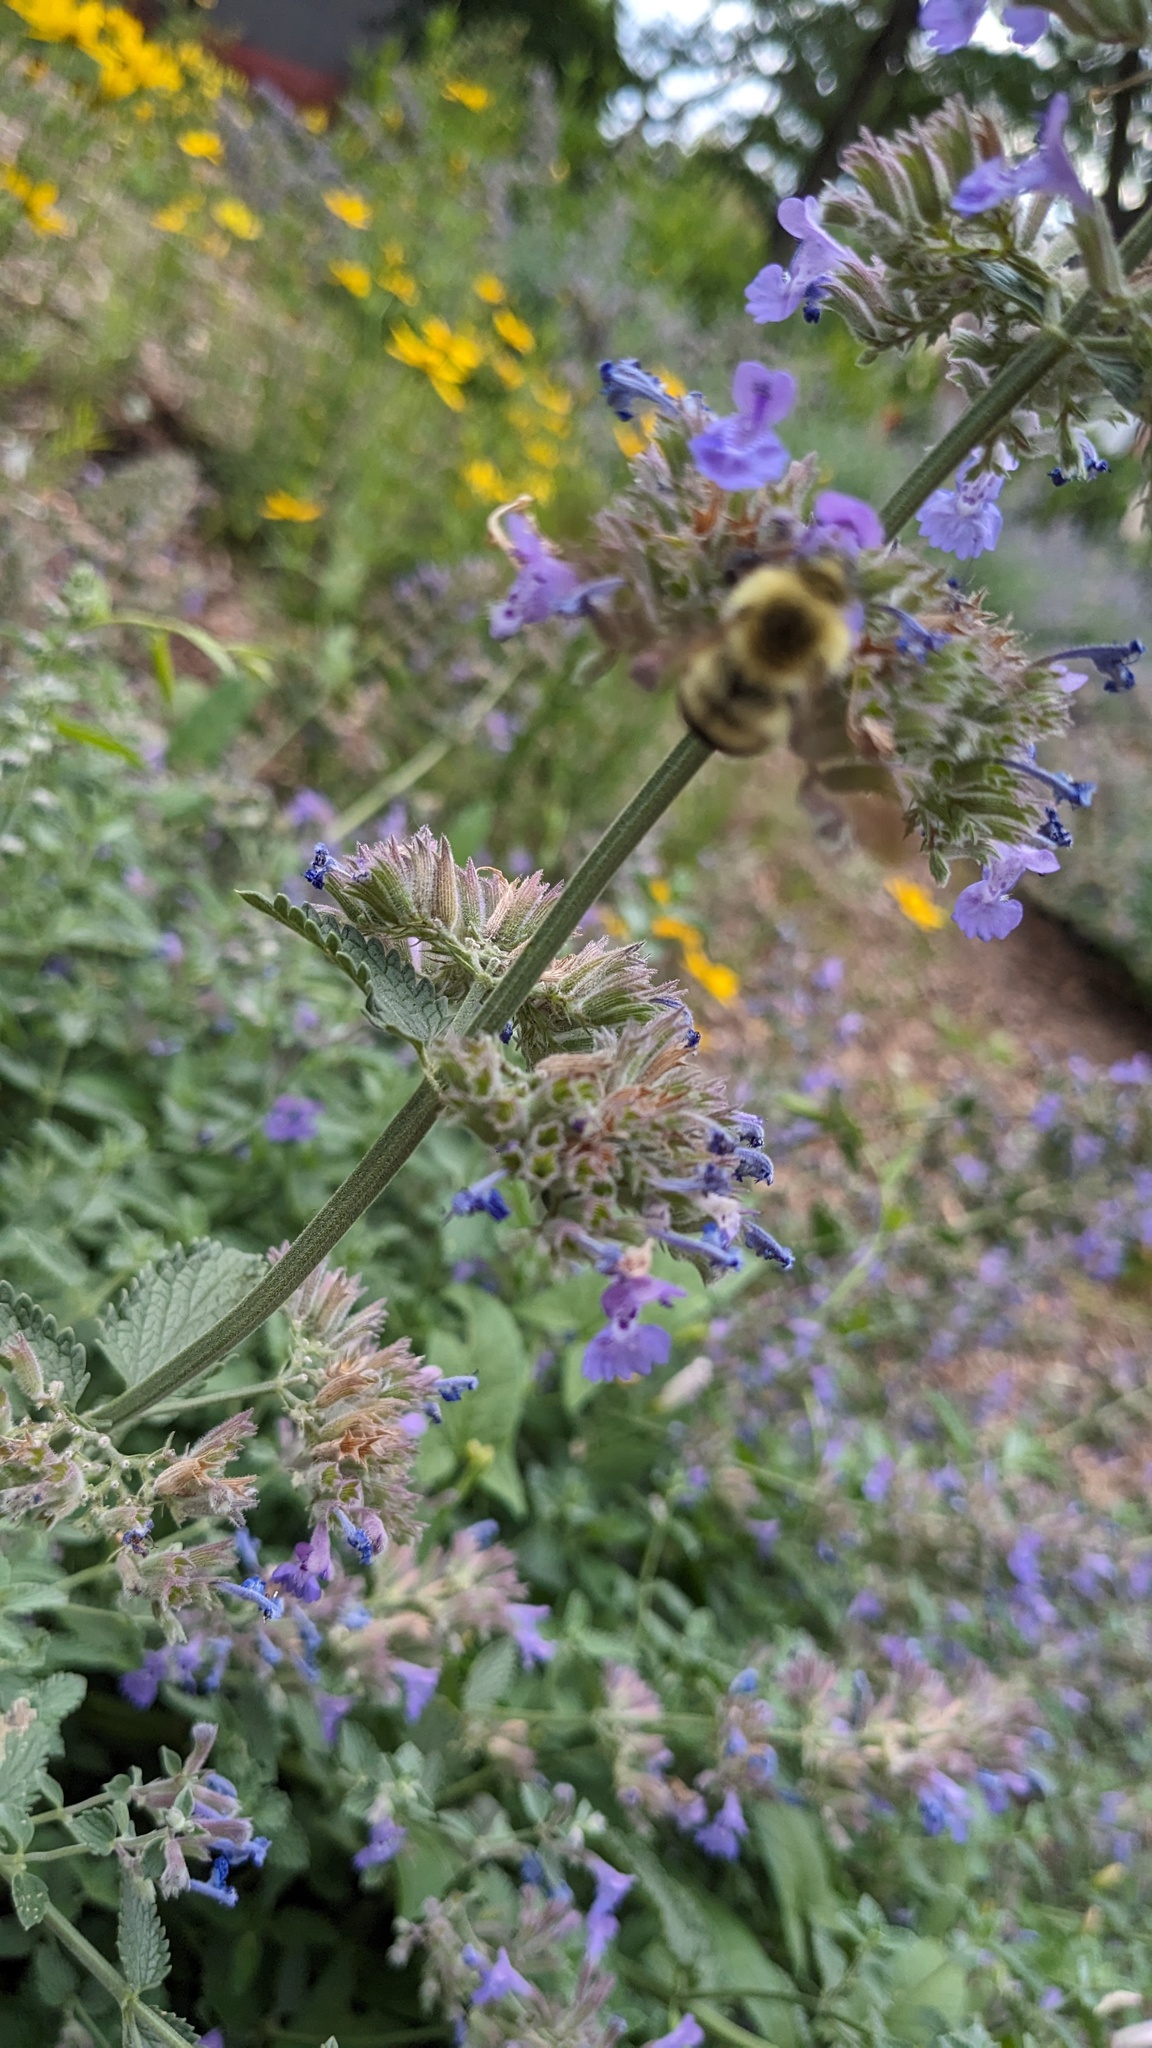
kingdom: Animalia
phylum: Arthropoda
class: Insecta
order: Hymenoptera
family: Apidae
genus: Bombus
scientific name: Bombus bimaculatus
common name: Two-spotted bumble bee
